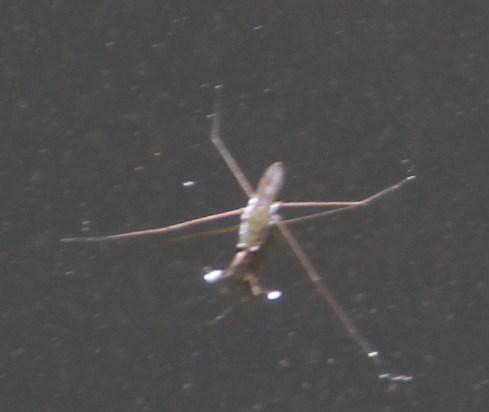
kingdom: Animalia
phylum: Arthropoda
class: Insecta
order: Hemiptera
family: Gerridae
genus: Gerris
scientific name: Gerris
